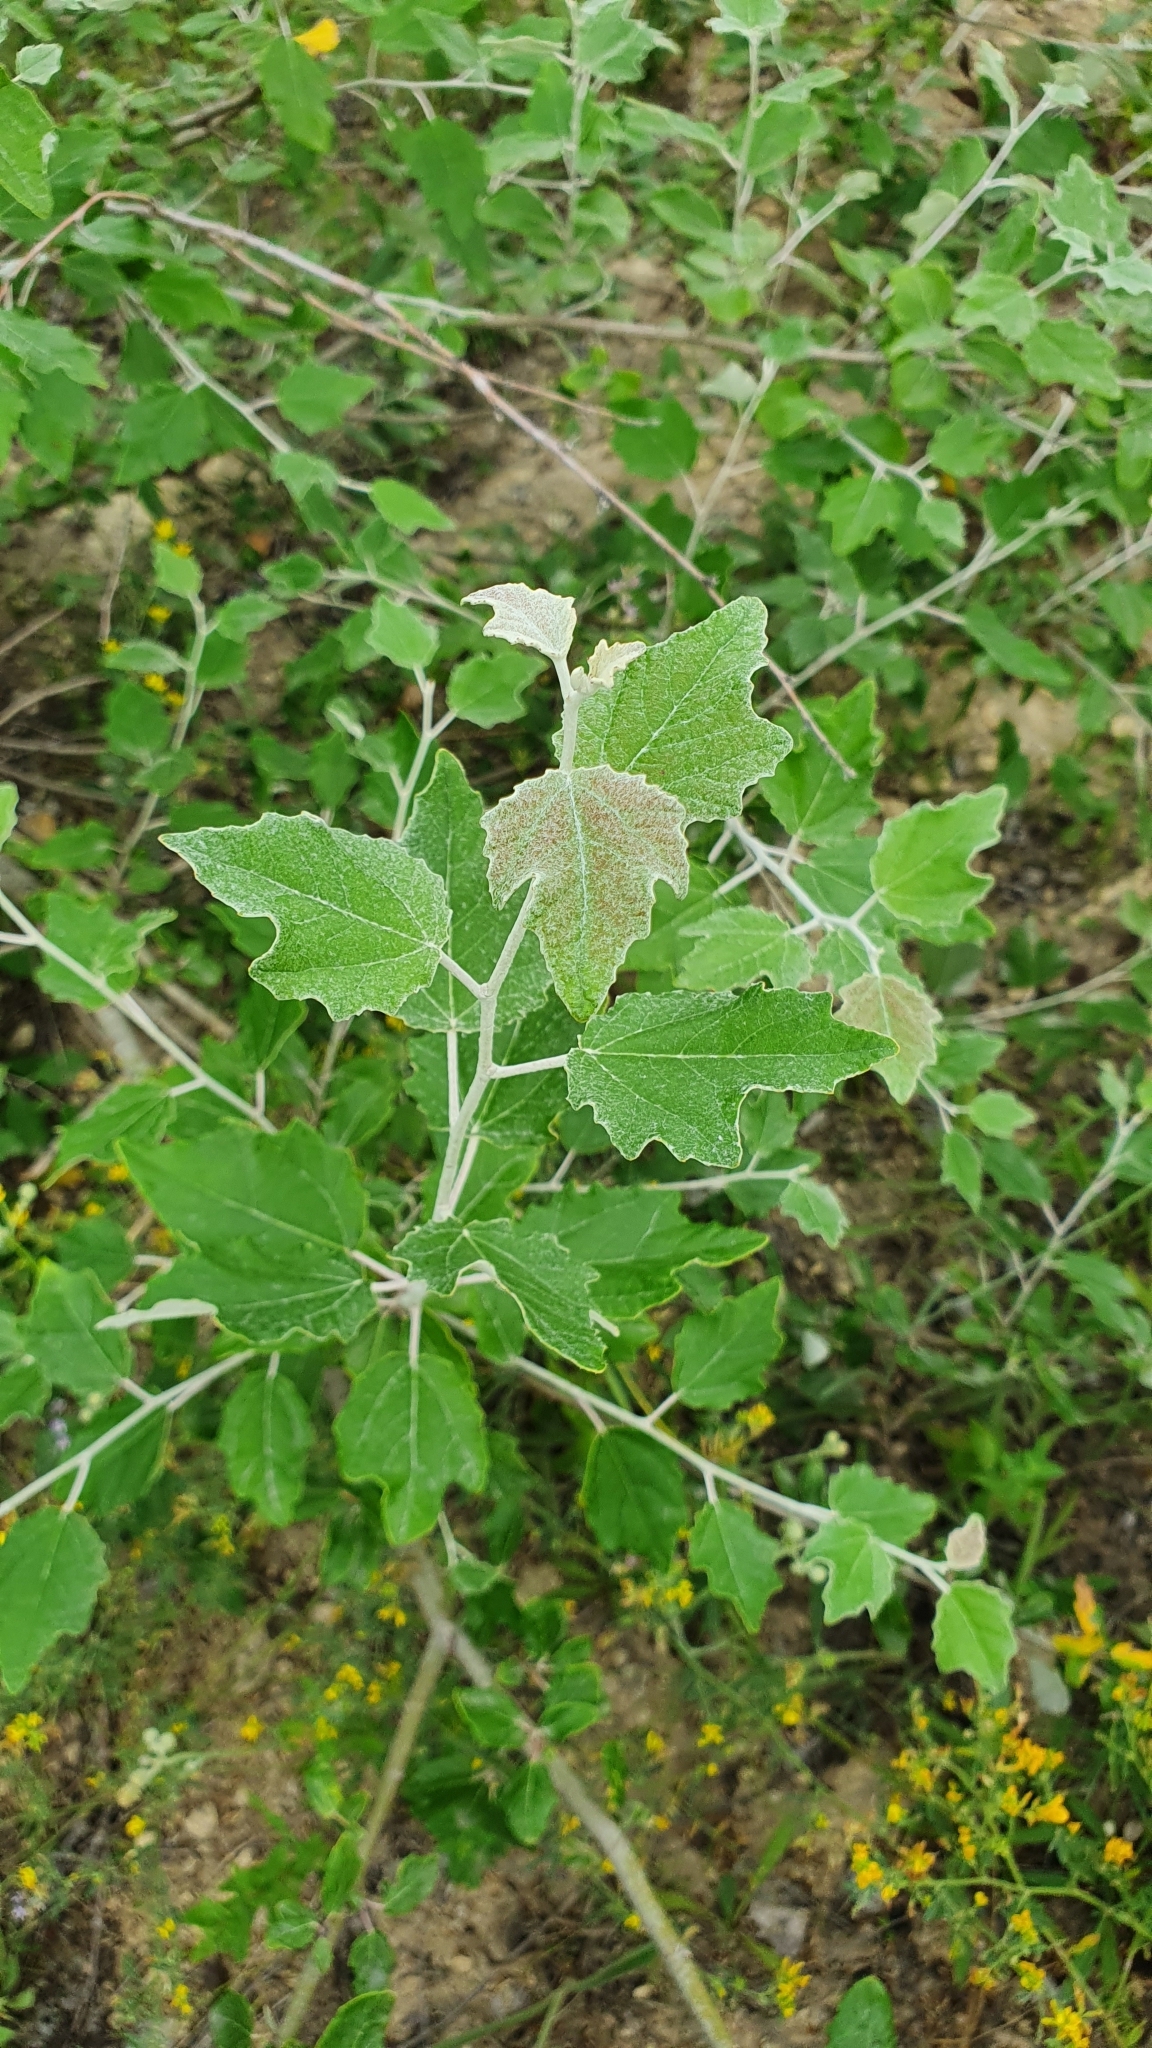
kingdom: Plantae
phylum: Tracheophyta
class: Magnoliopsida
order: Malpighiales
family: Salicaceae
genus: Populus
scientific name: Populus alba
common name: White poplar
